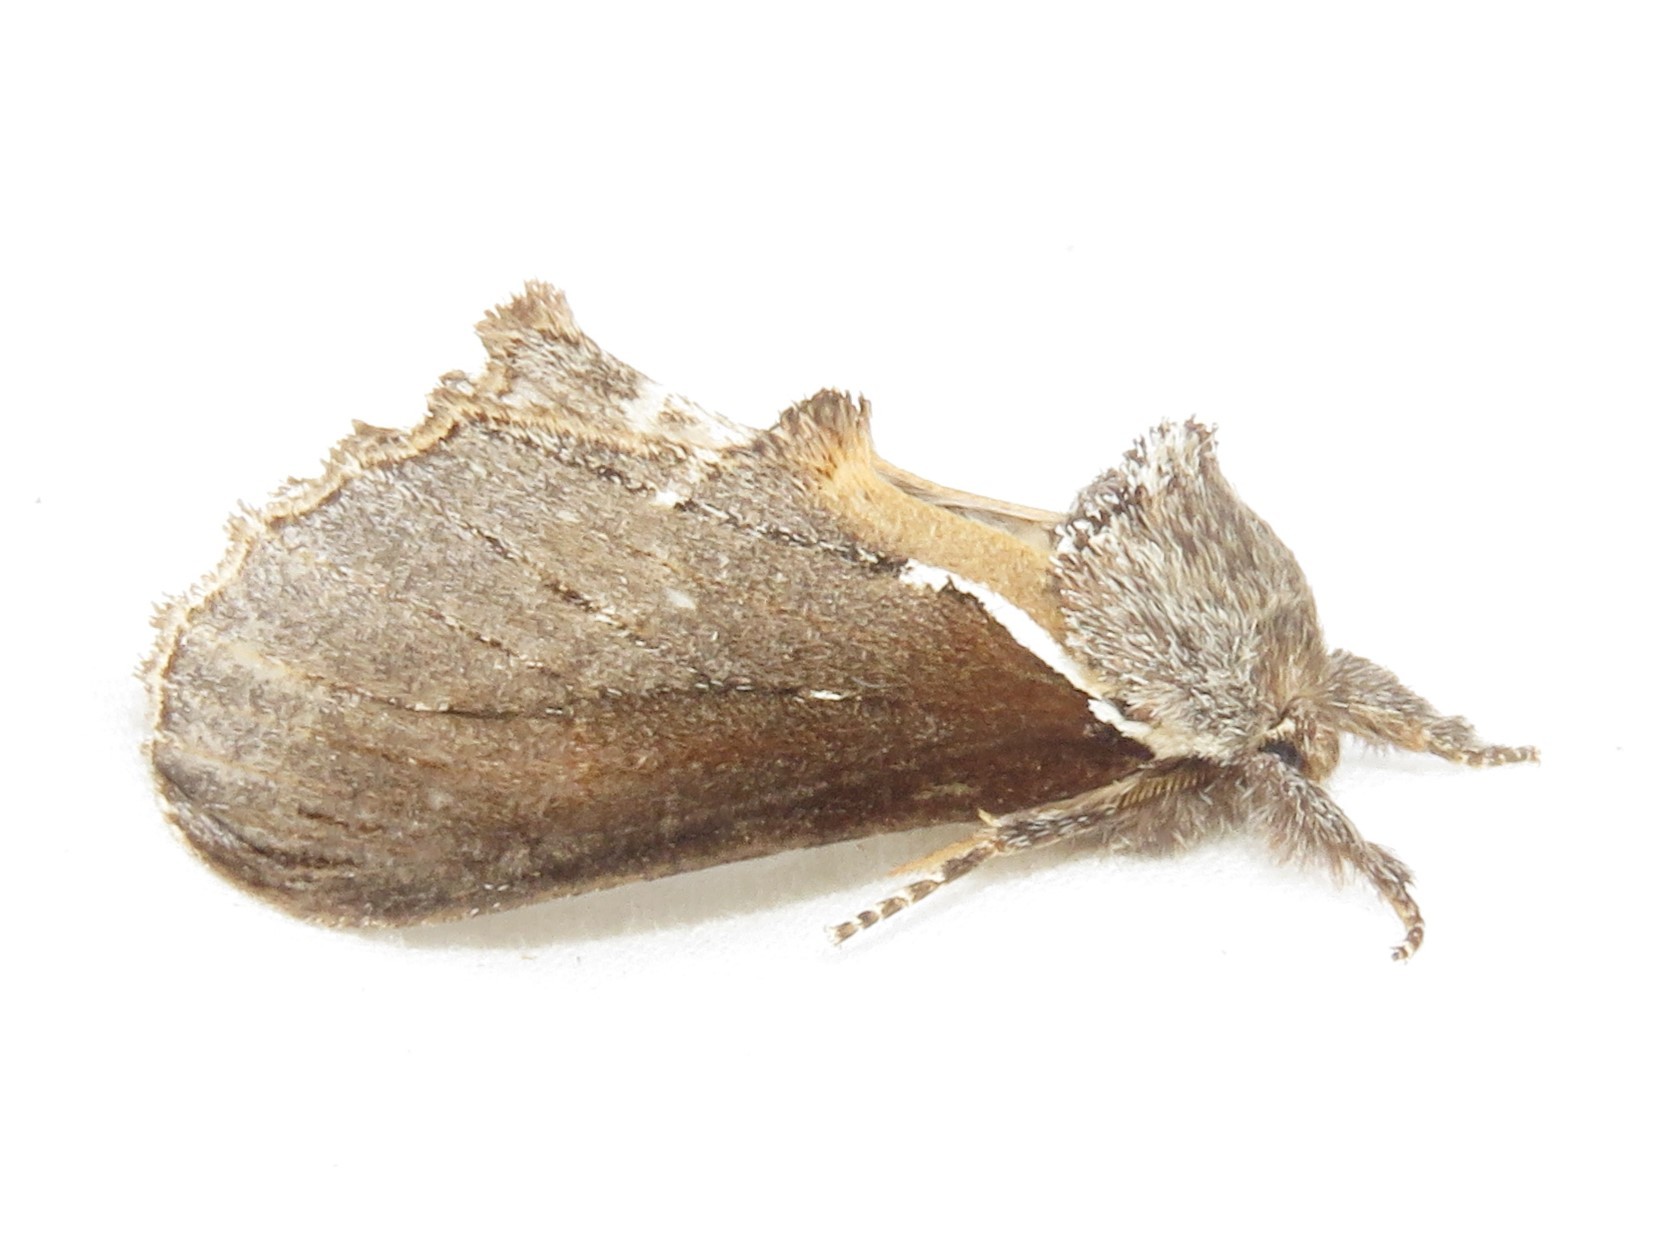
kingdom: Animalia
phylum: Arthropoda
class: Insecta
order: Lepidoptera
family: Notodontidae
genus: Pheosidea
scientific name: Pheosidea elegans
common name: Elegant prominent
